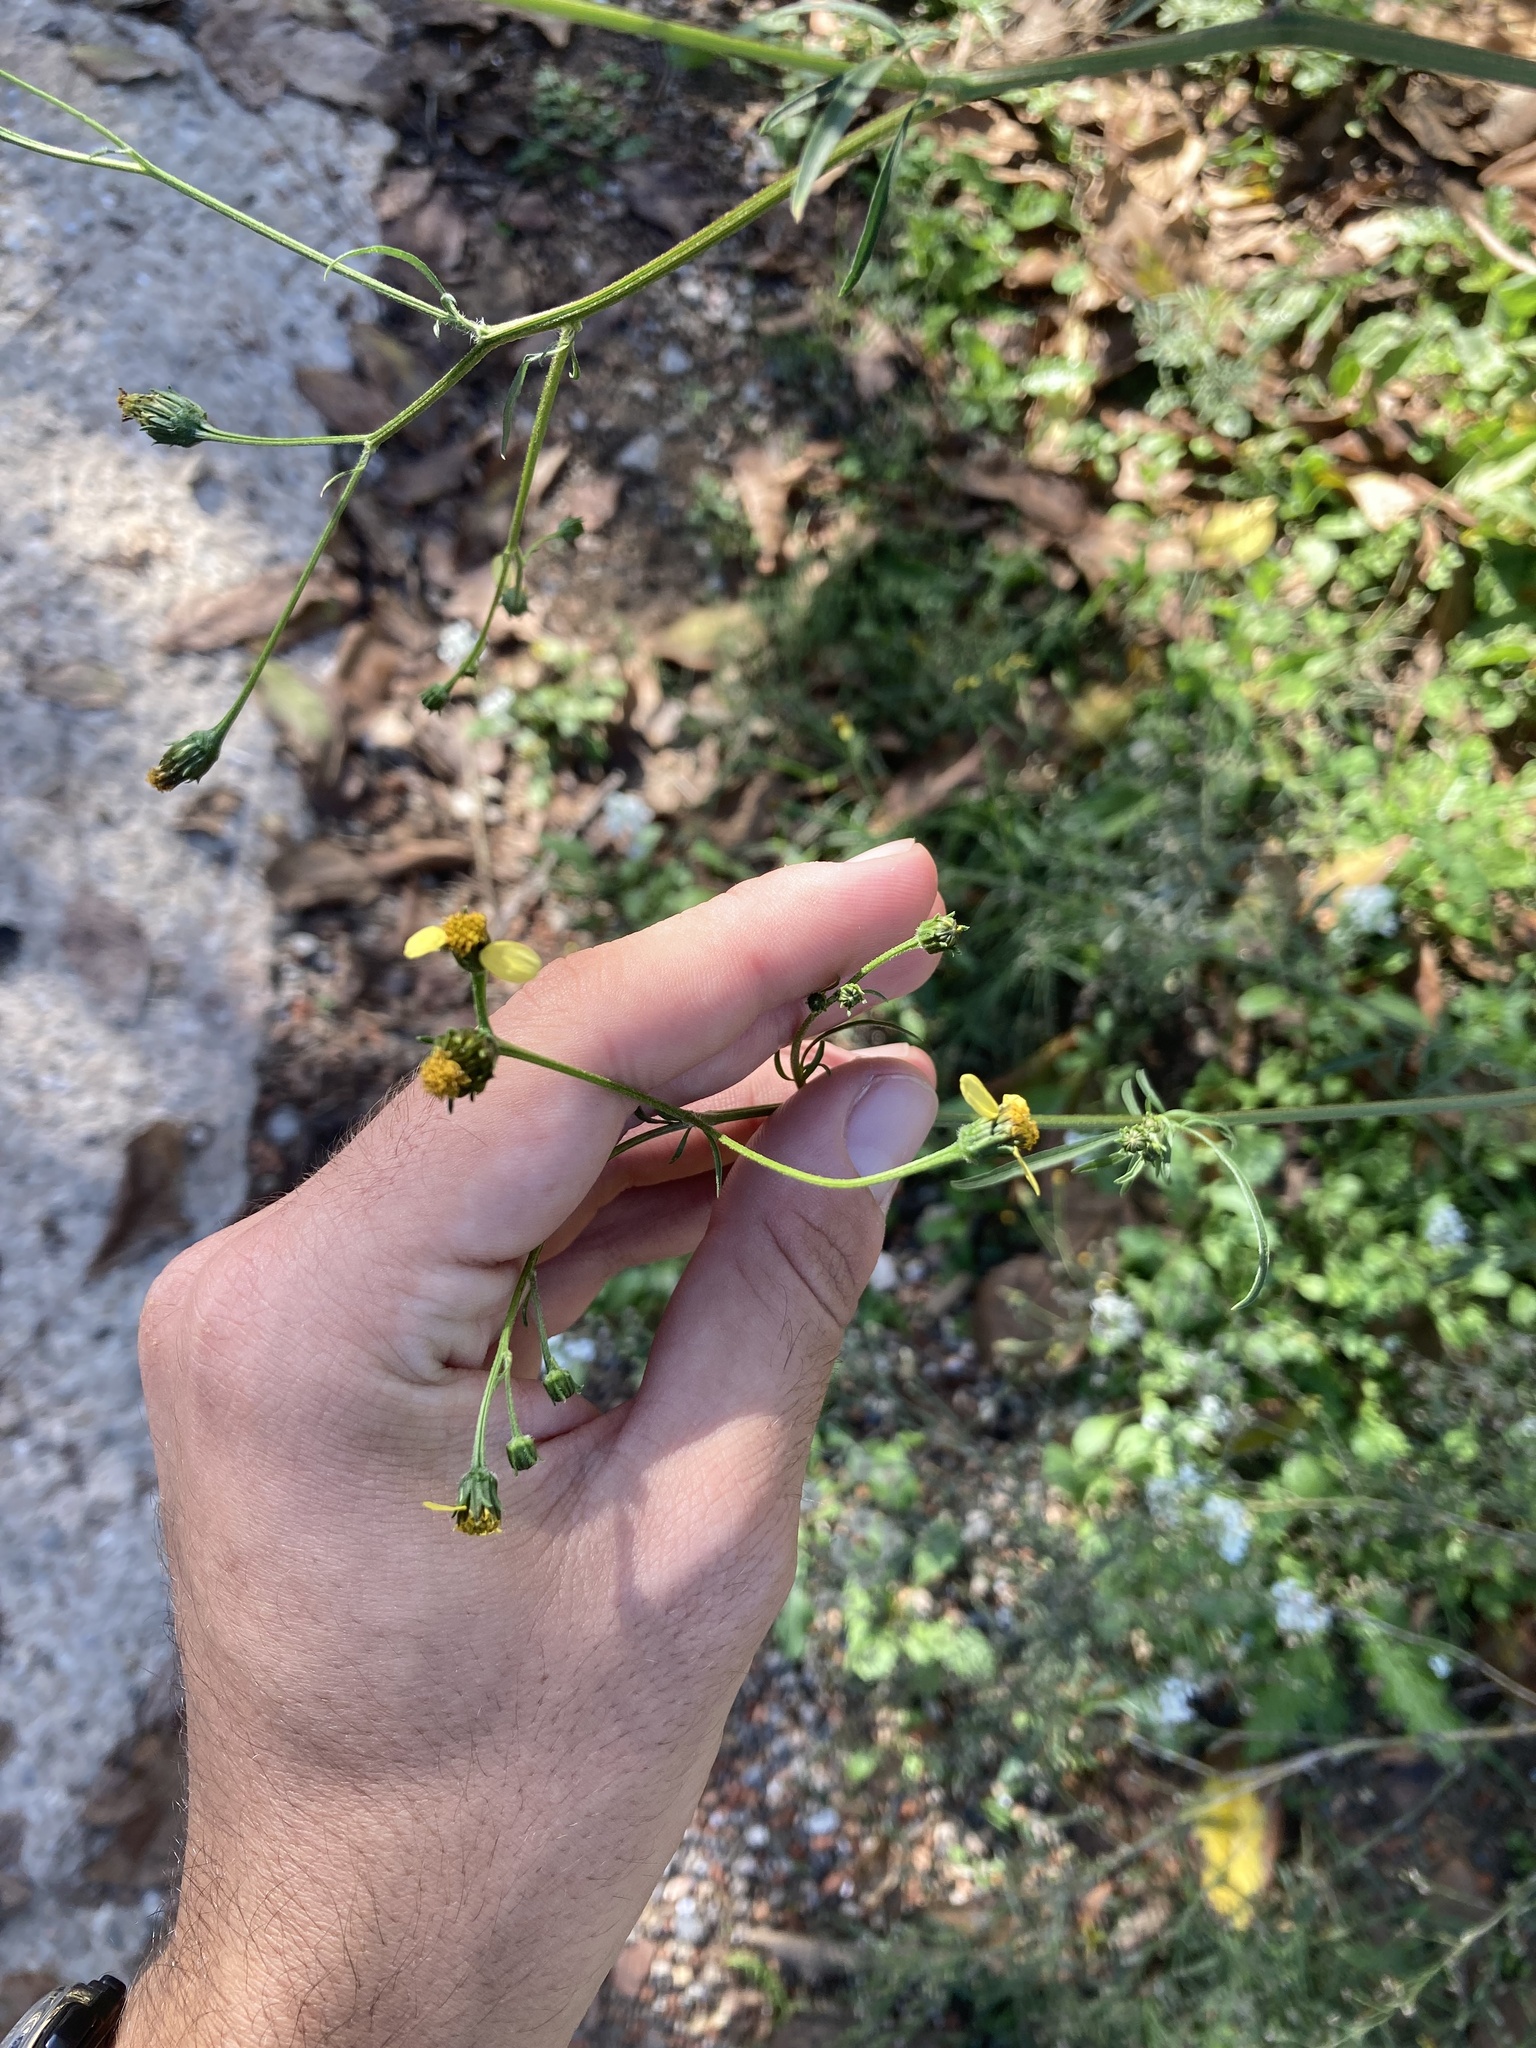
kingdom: Plantae
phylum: Tracheophyta
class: Magnoliopsida
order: Asterales
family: Asteraceae
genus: Bidens
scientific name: Bidens subalternans
